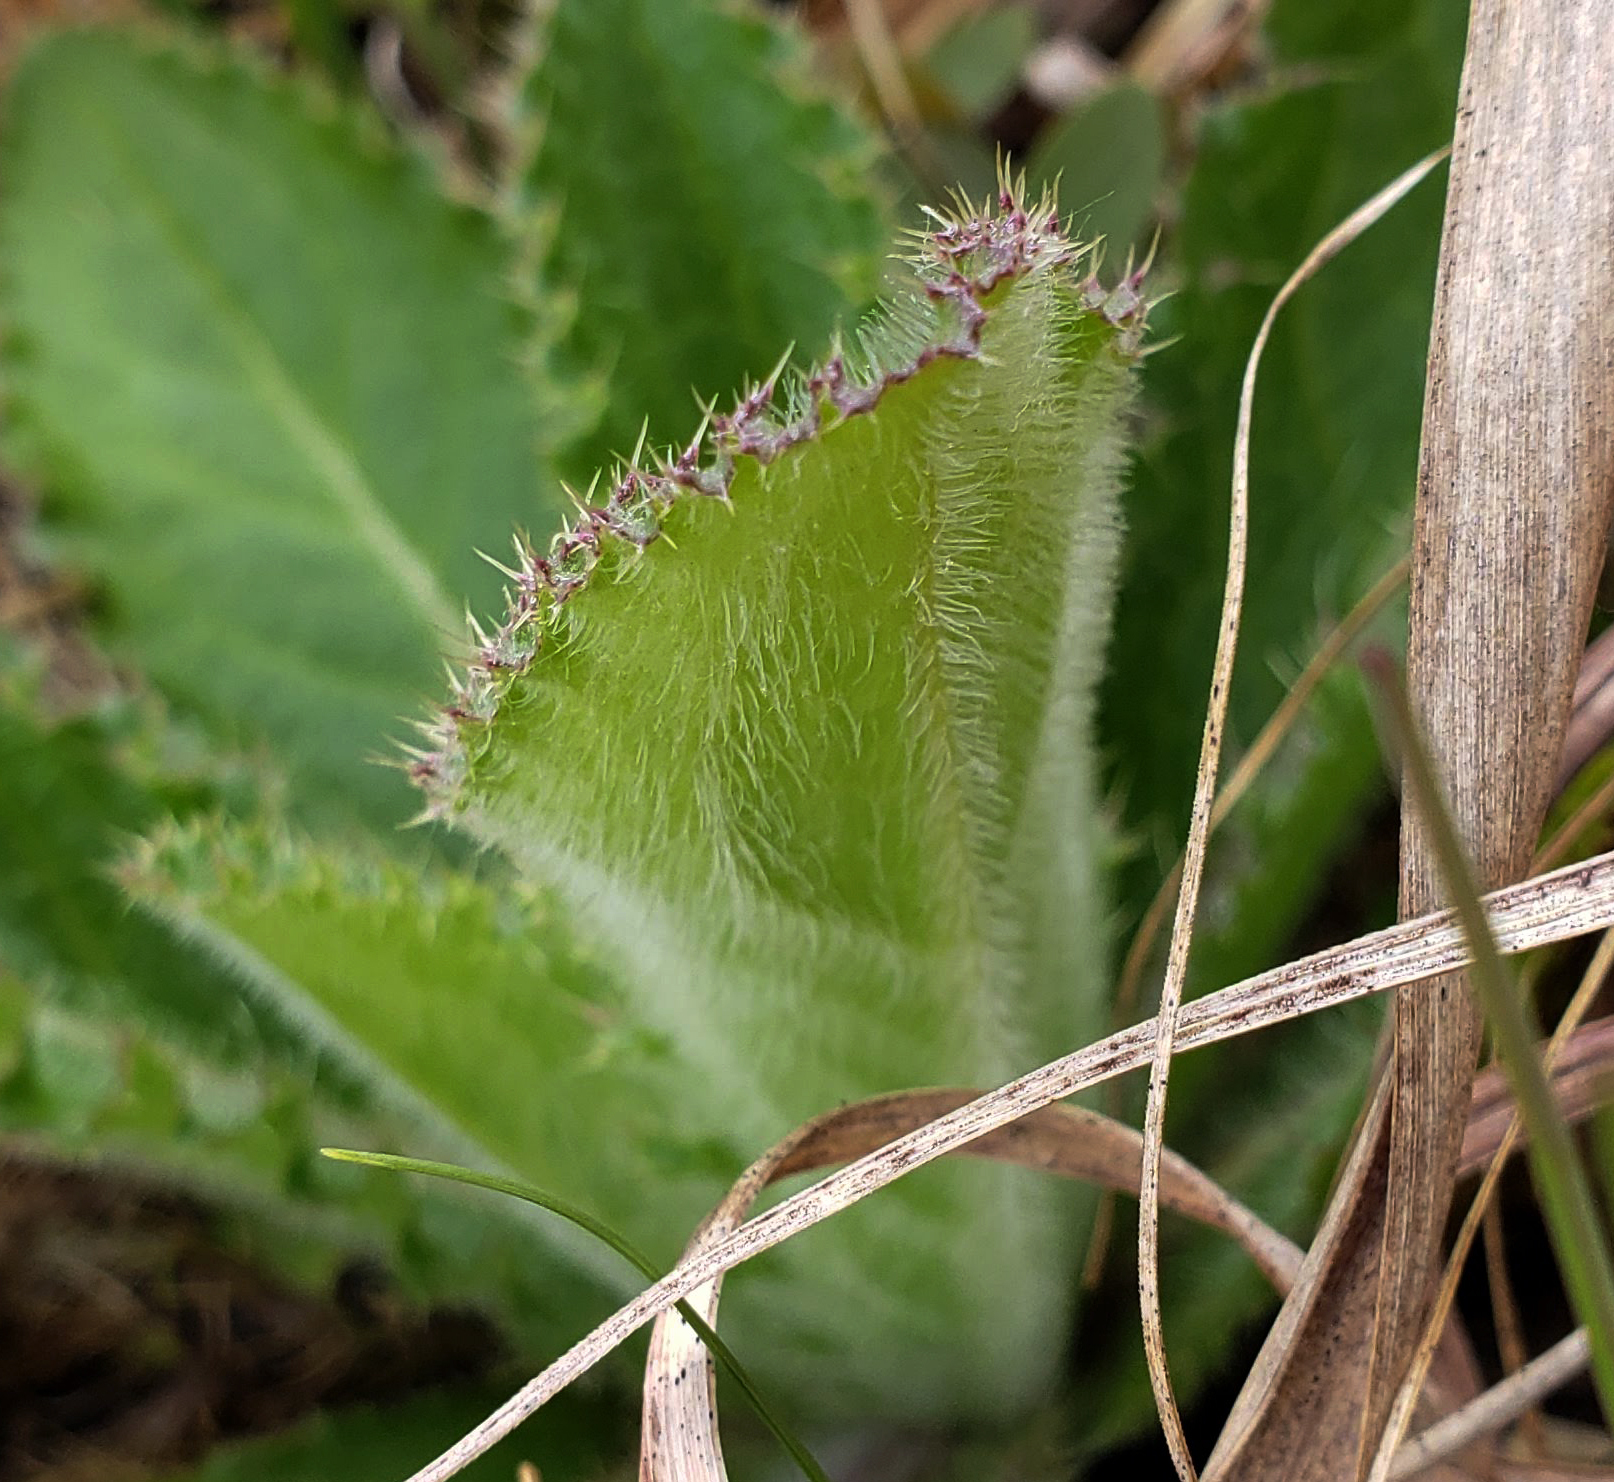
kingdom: Plantae
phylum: Tracheophyta
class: Magnoliopsida
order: Asterales
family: Asteraceae
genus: Cirsium
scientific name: Cirsium pumilum
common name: Pasture thistle
